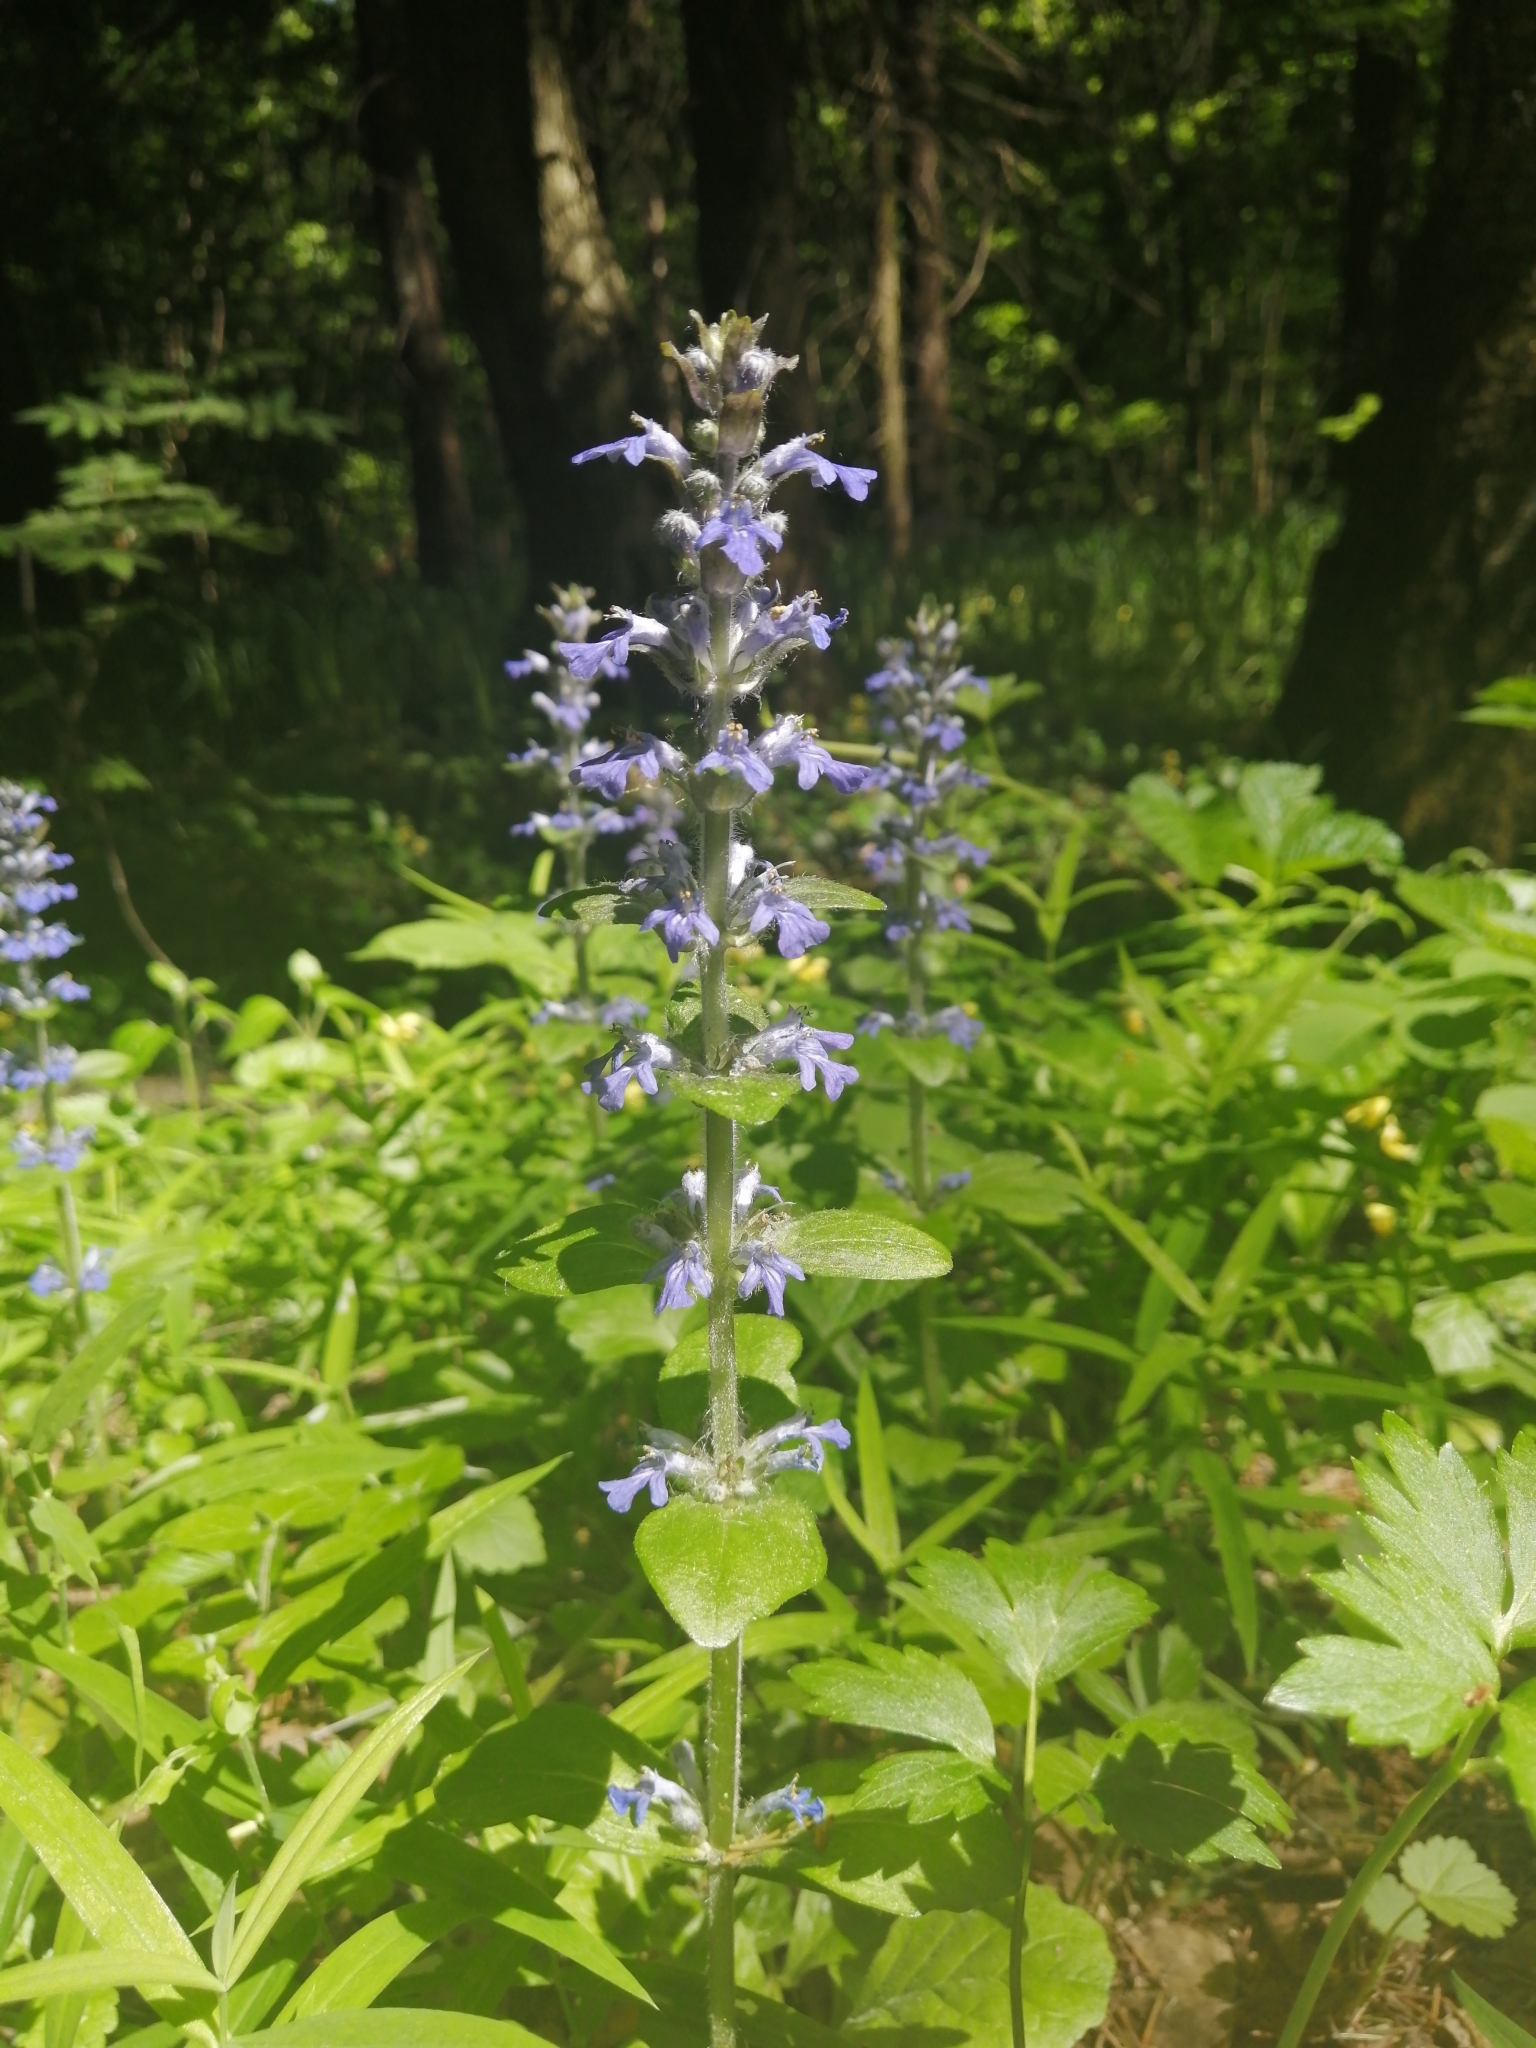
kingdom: Plantae
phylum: Tracheophyta
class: Magnoliopsida
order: Lamiales
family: Lamiaceae
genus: Ajuga
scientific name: Ajuga reptans
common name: Bugle
